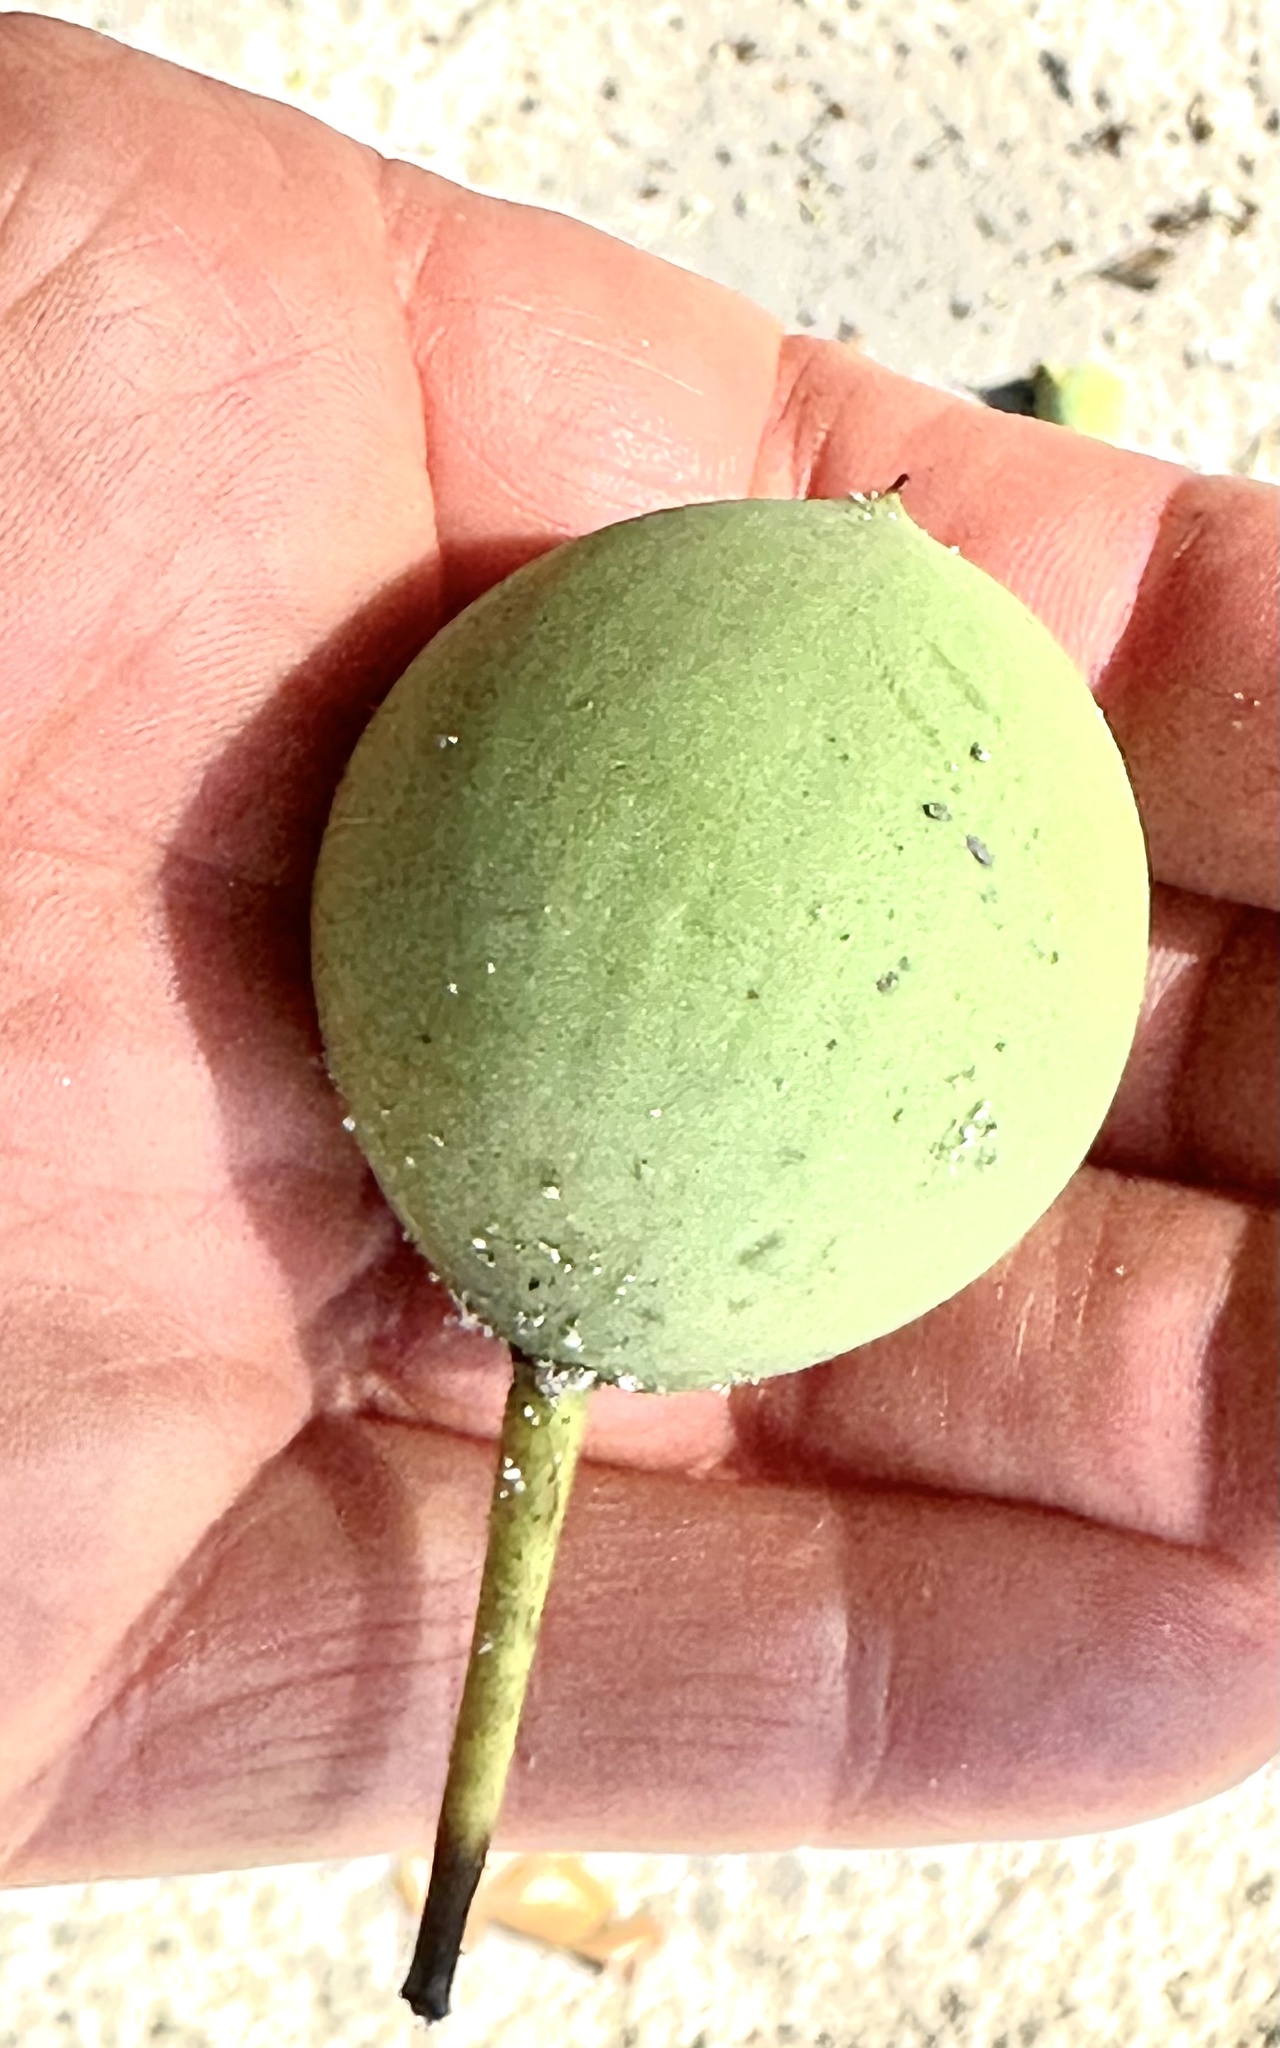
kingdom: Plantae
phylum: Tracheophyta
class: Magnoliopsida
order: Malpighiales
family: Calophyllaceae
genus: Calophyllum
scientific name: Calophyllum inophyllum
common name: Alexandrian laurel
